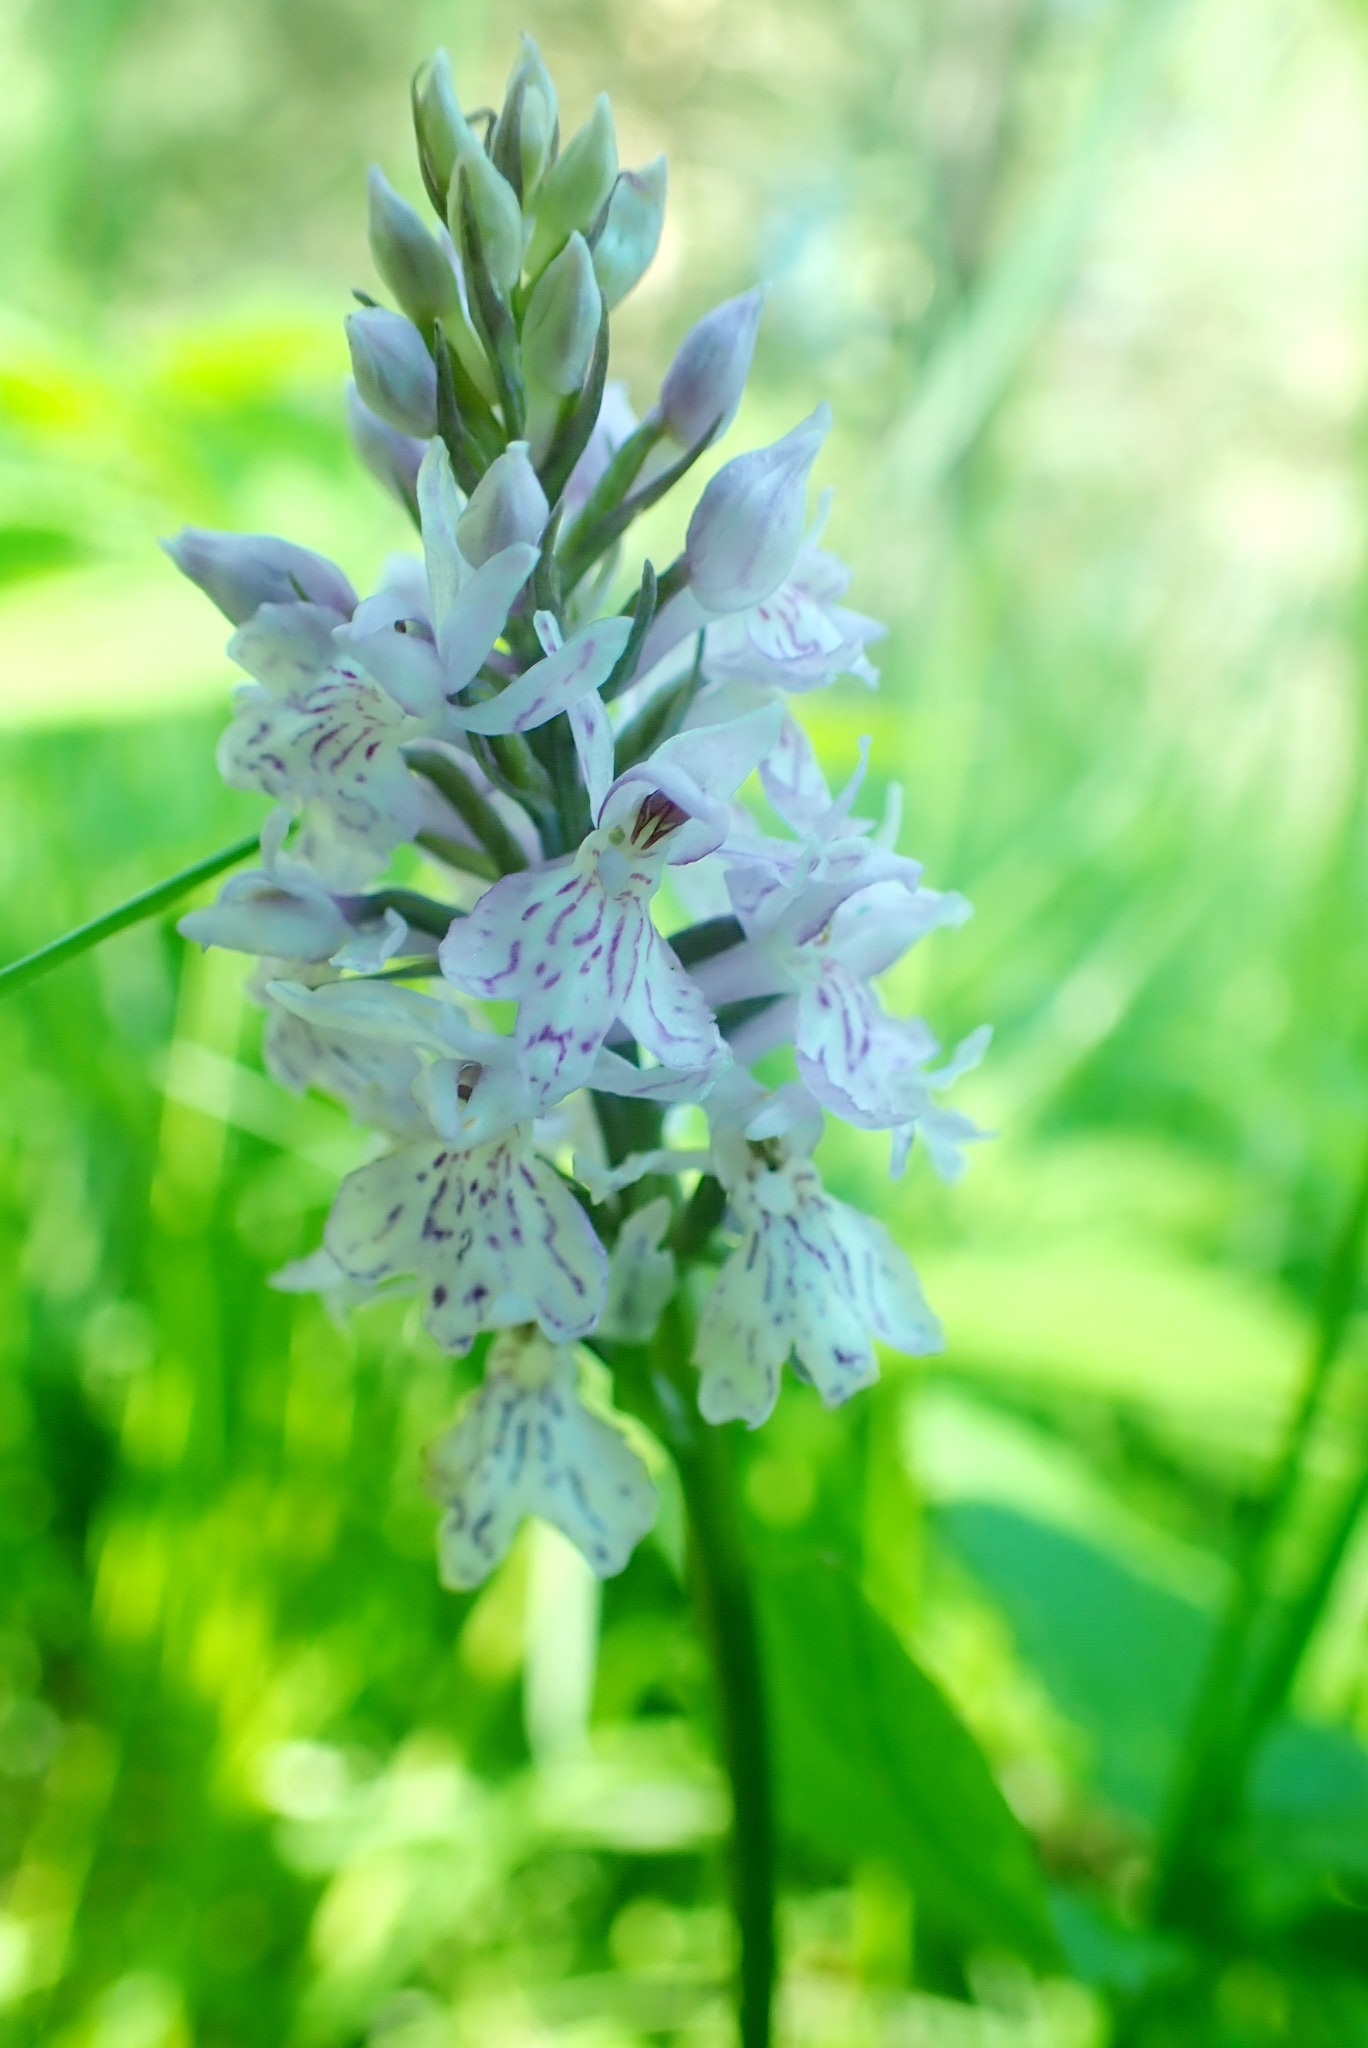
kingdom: Plantae
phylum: Tracheophyta
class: Liliopsida
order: Asparagales
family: Orchidaceae
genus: Dactylorhiza
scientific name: Dactylorhiza maculata
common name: Heath spotted-orchid
